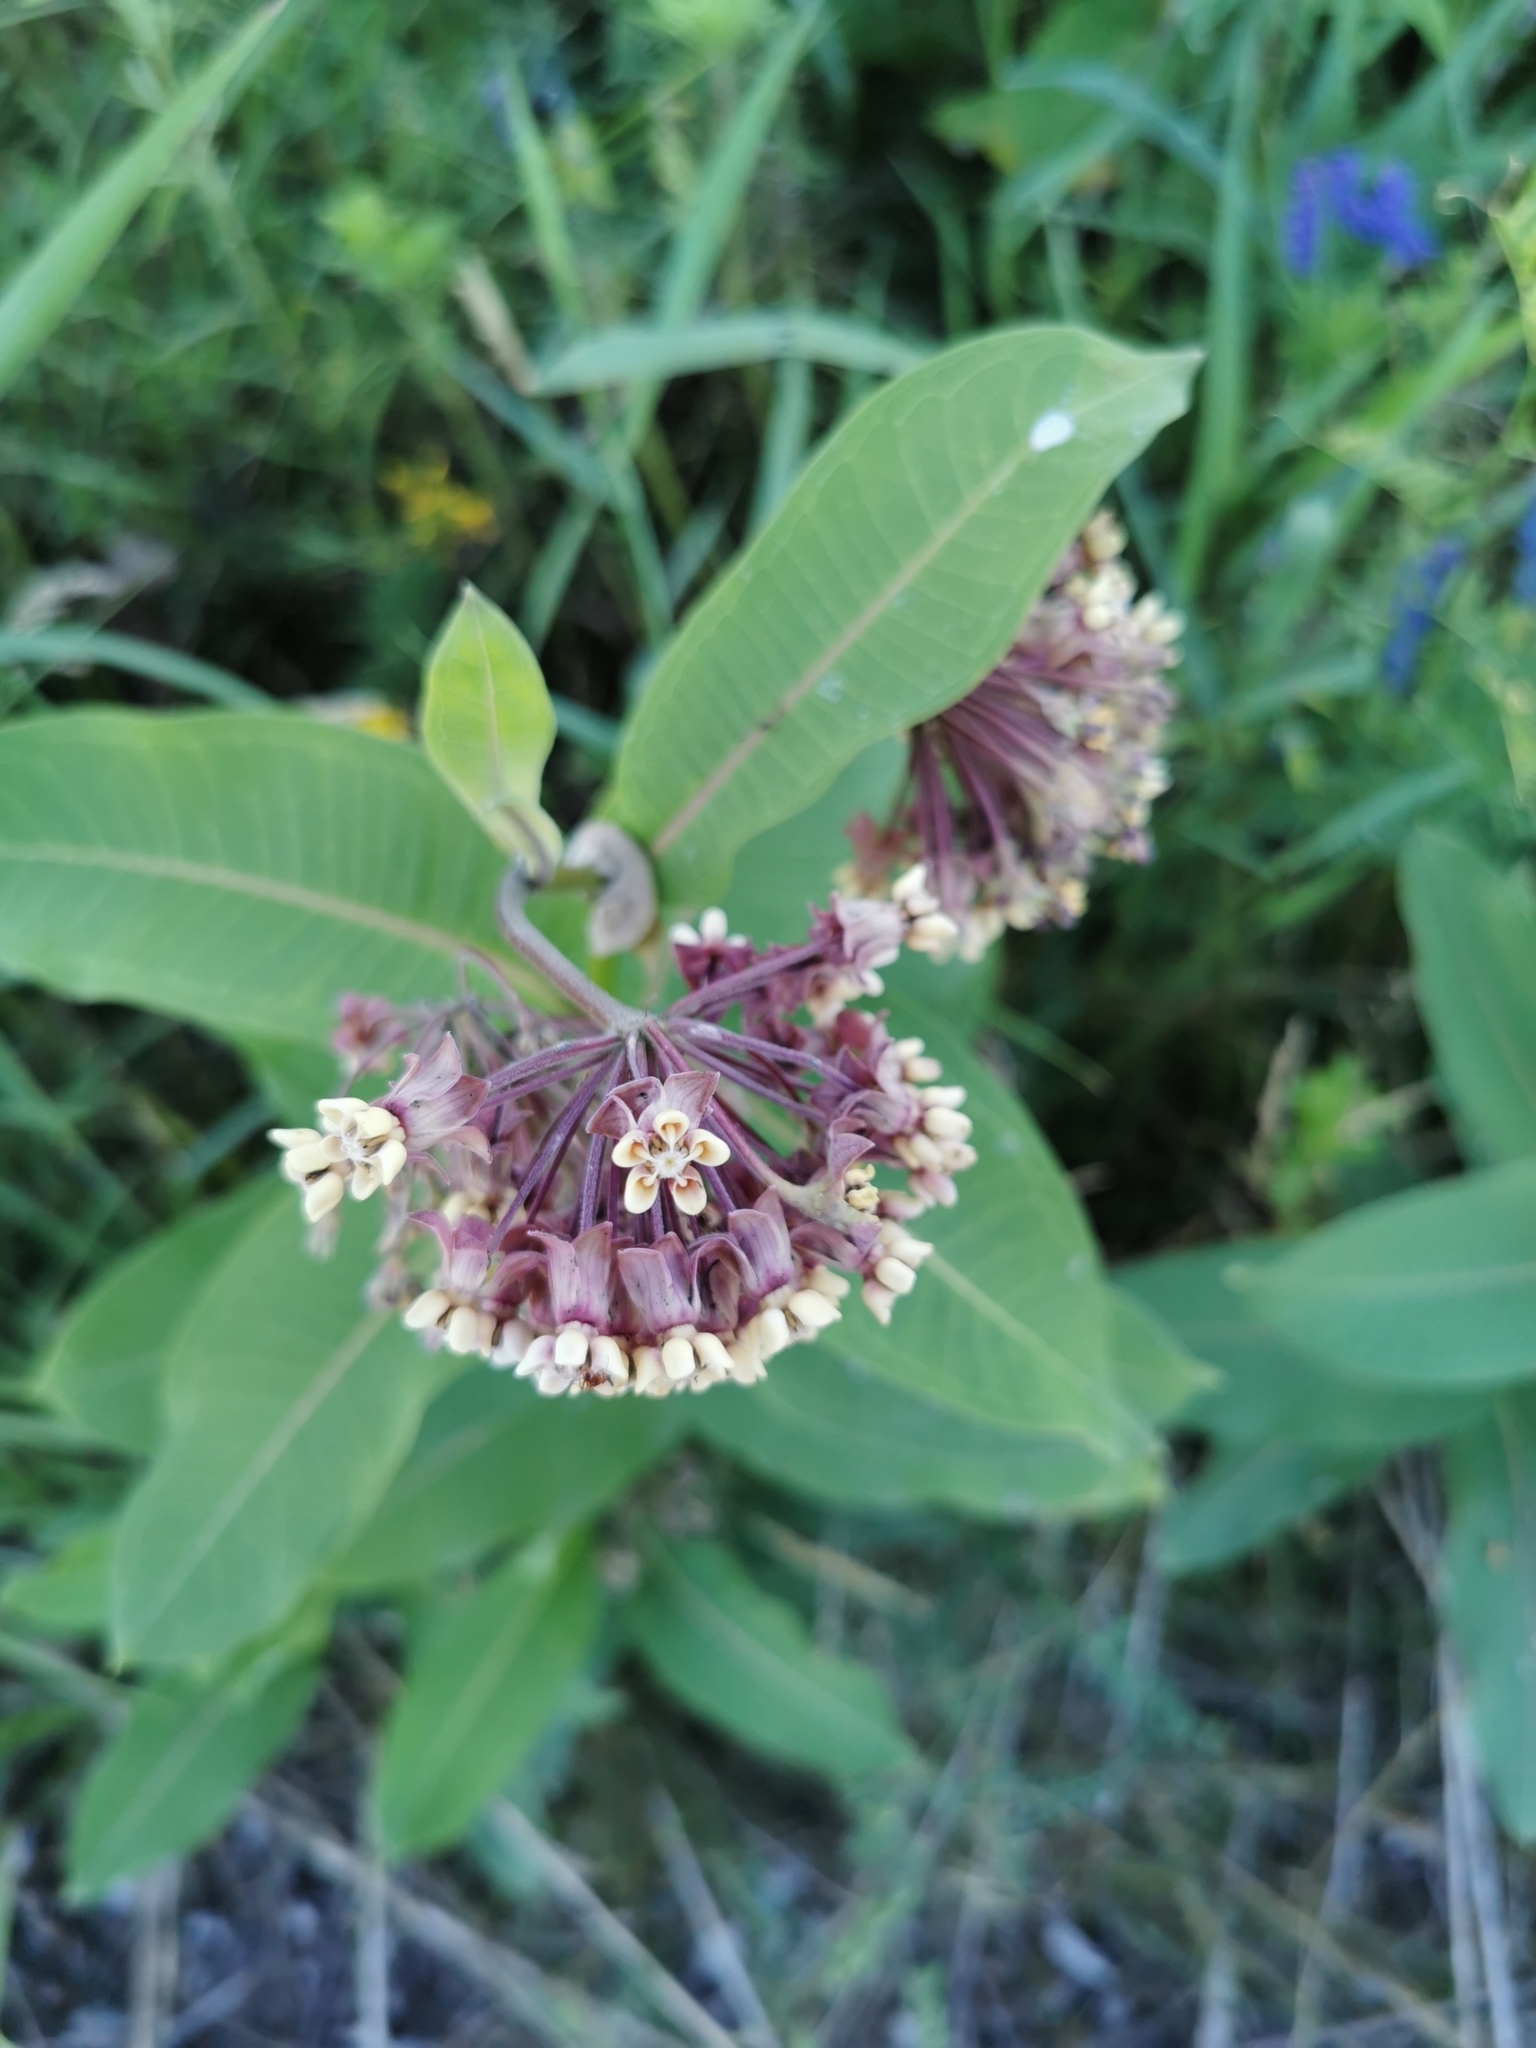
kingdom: Plantae
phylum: Tracheophyta
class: Magnoliopsida
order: Gentianales
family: Apocynaceae
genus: Asclepias
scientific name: Asclepias syriaca
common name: Common milkweed
